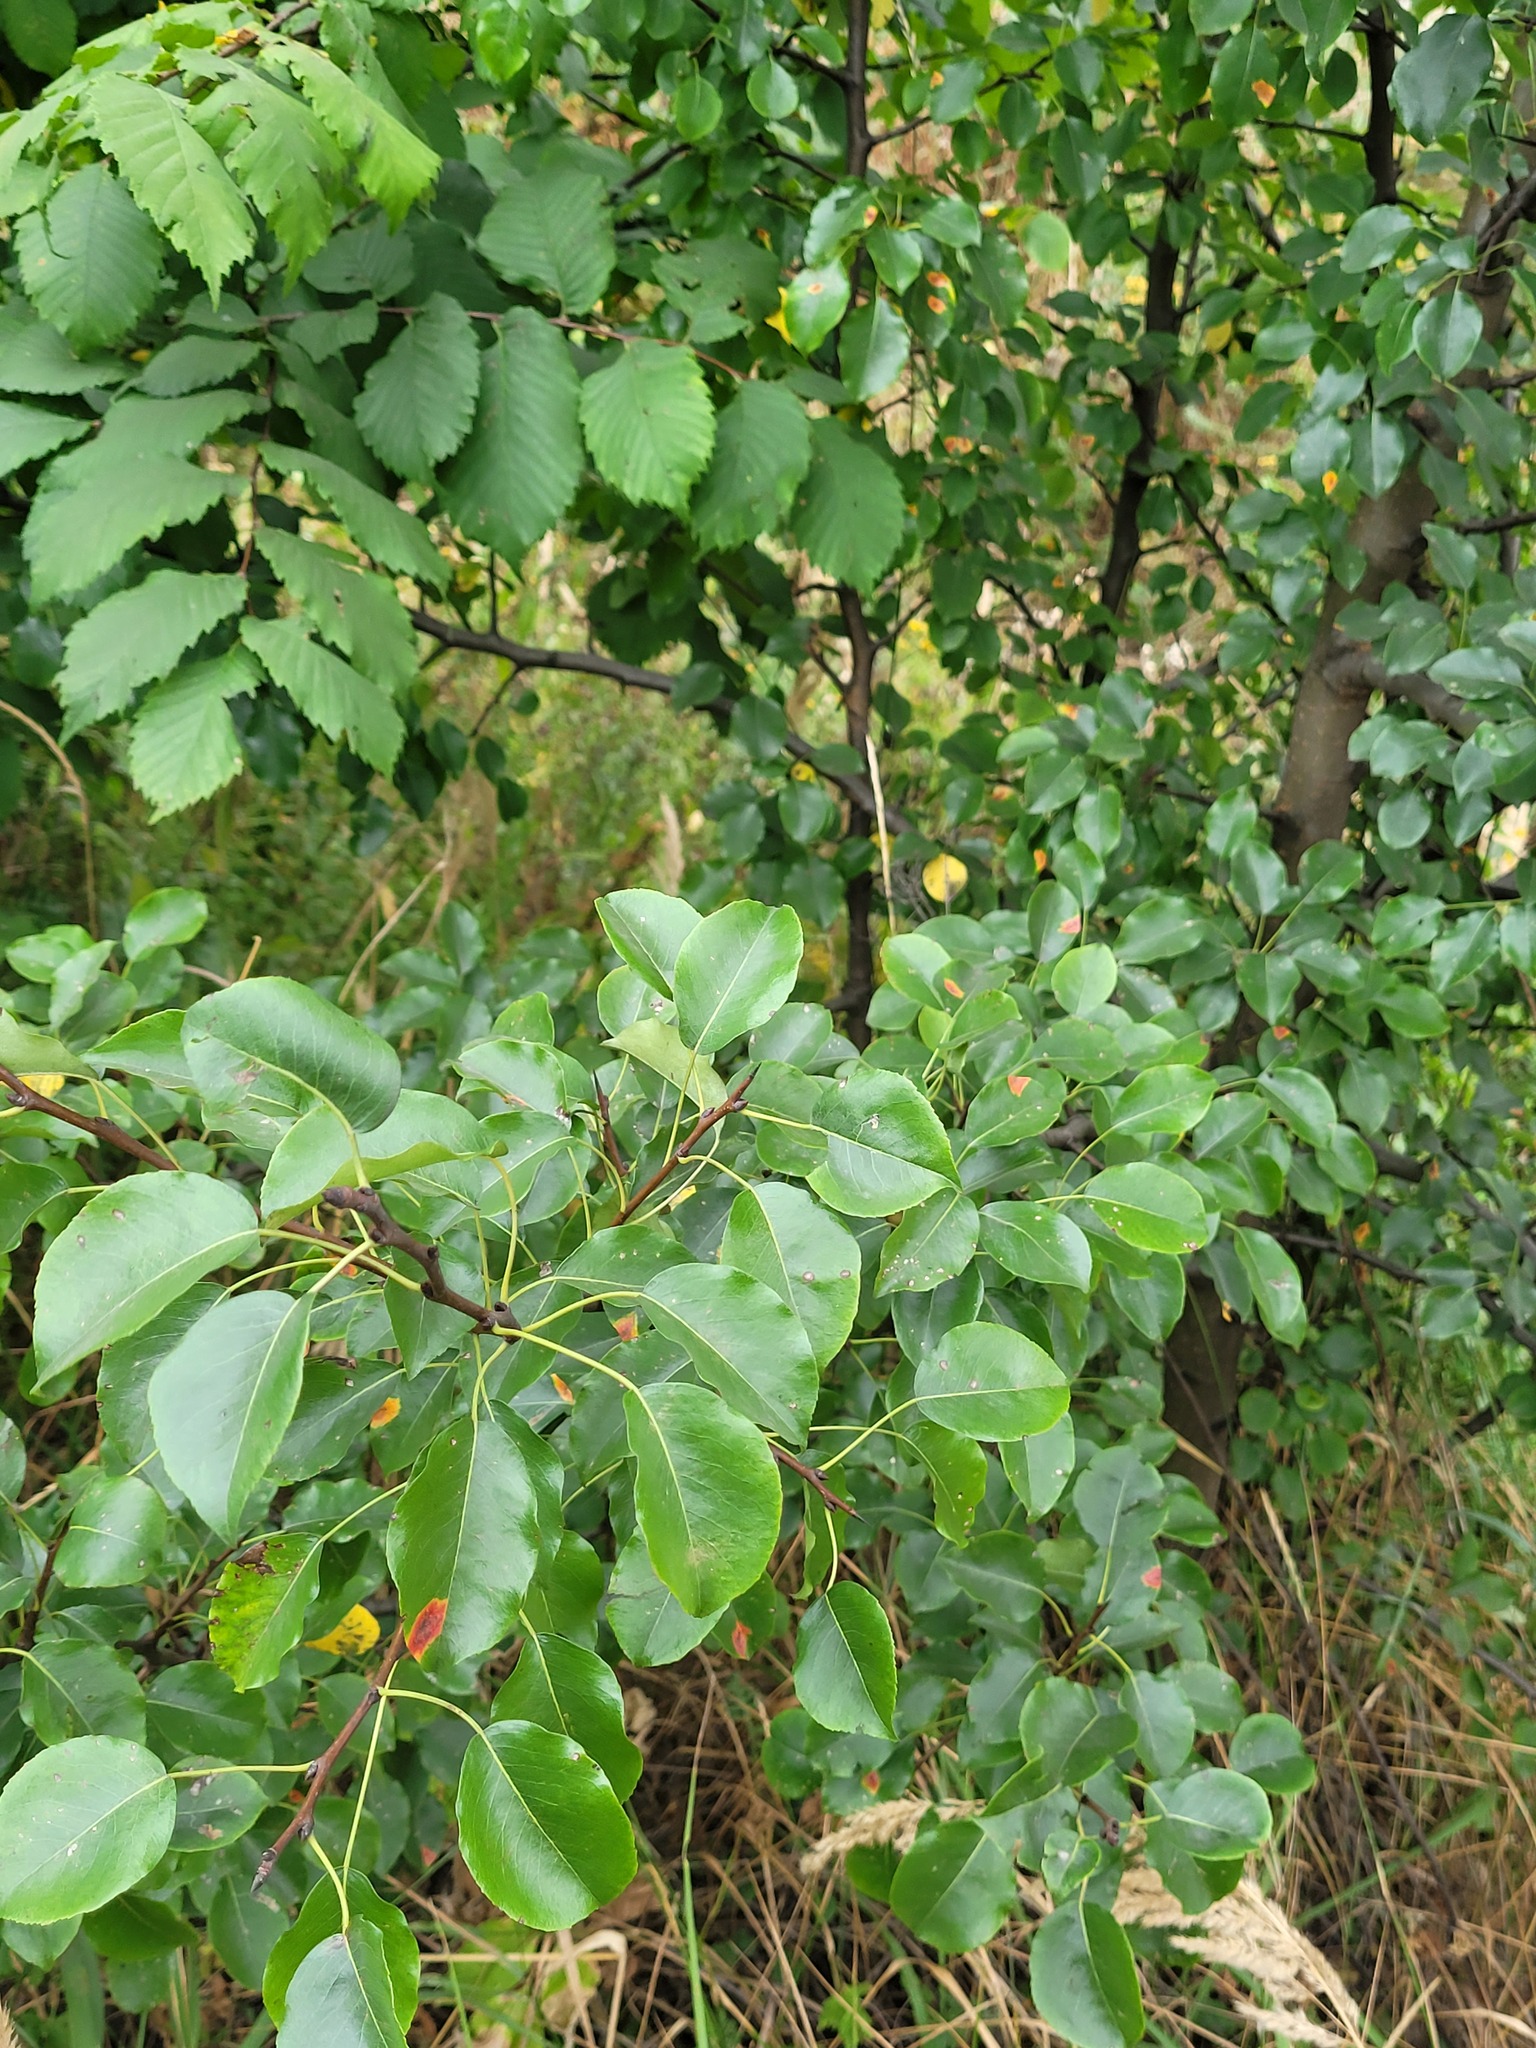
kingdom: Plantae
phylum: Tracheophyta
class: Magnoliopsida
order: Rosales
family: Rosaceae
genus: Pyrus
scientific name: Pyrus communis
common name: Pear
